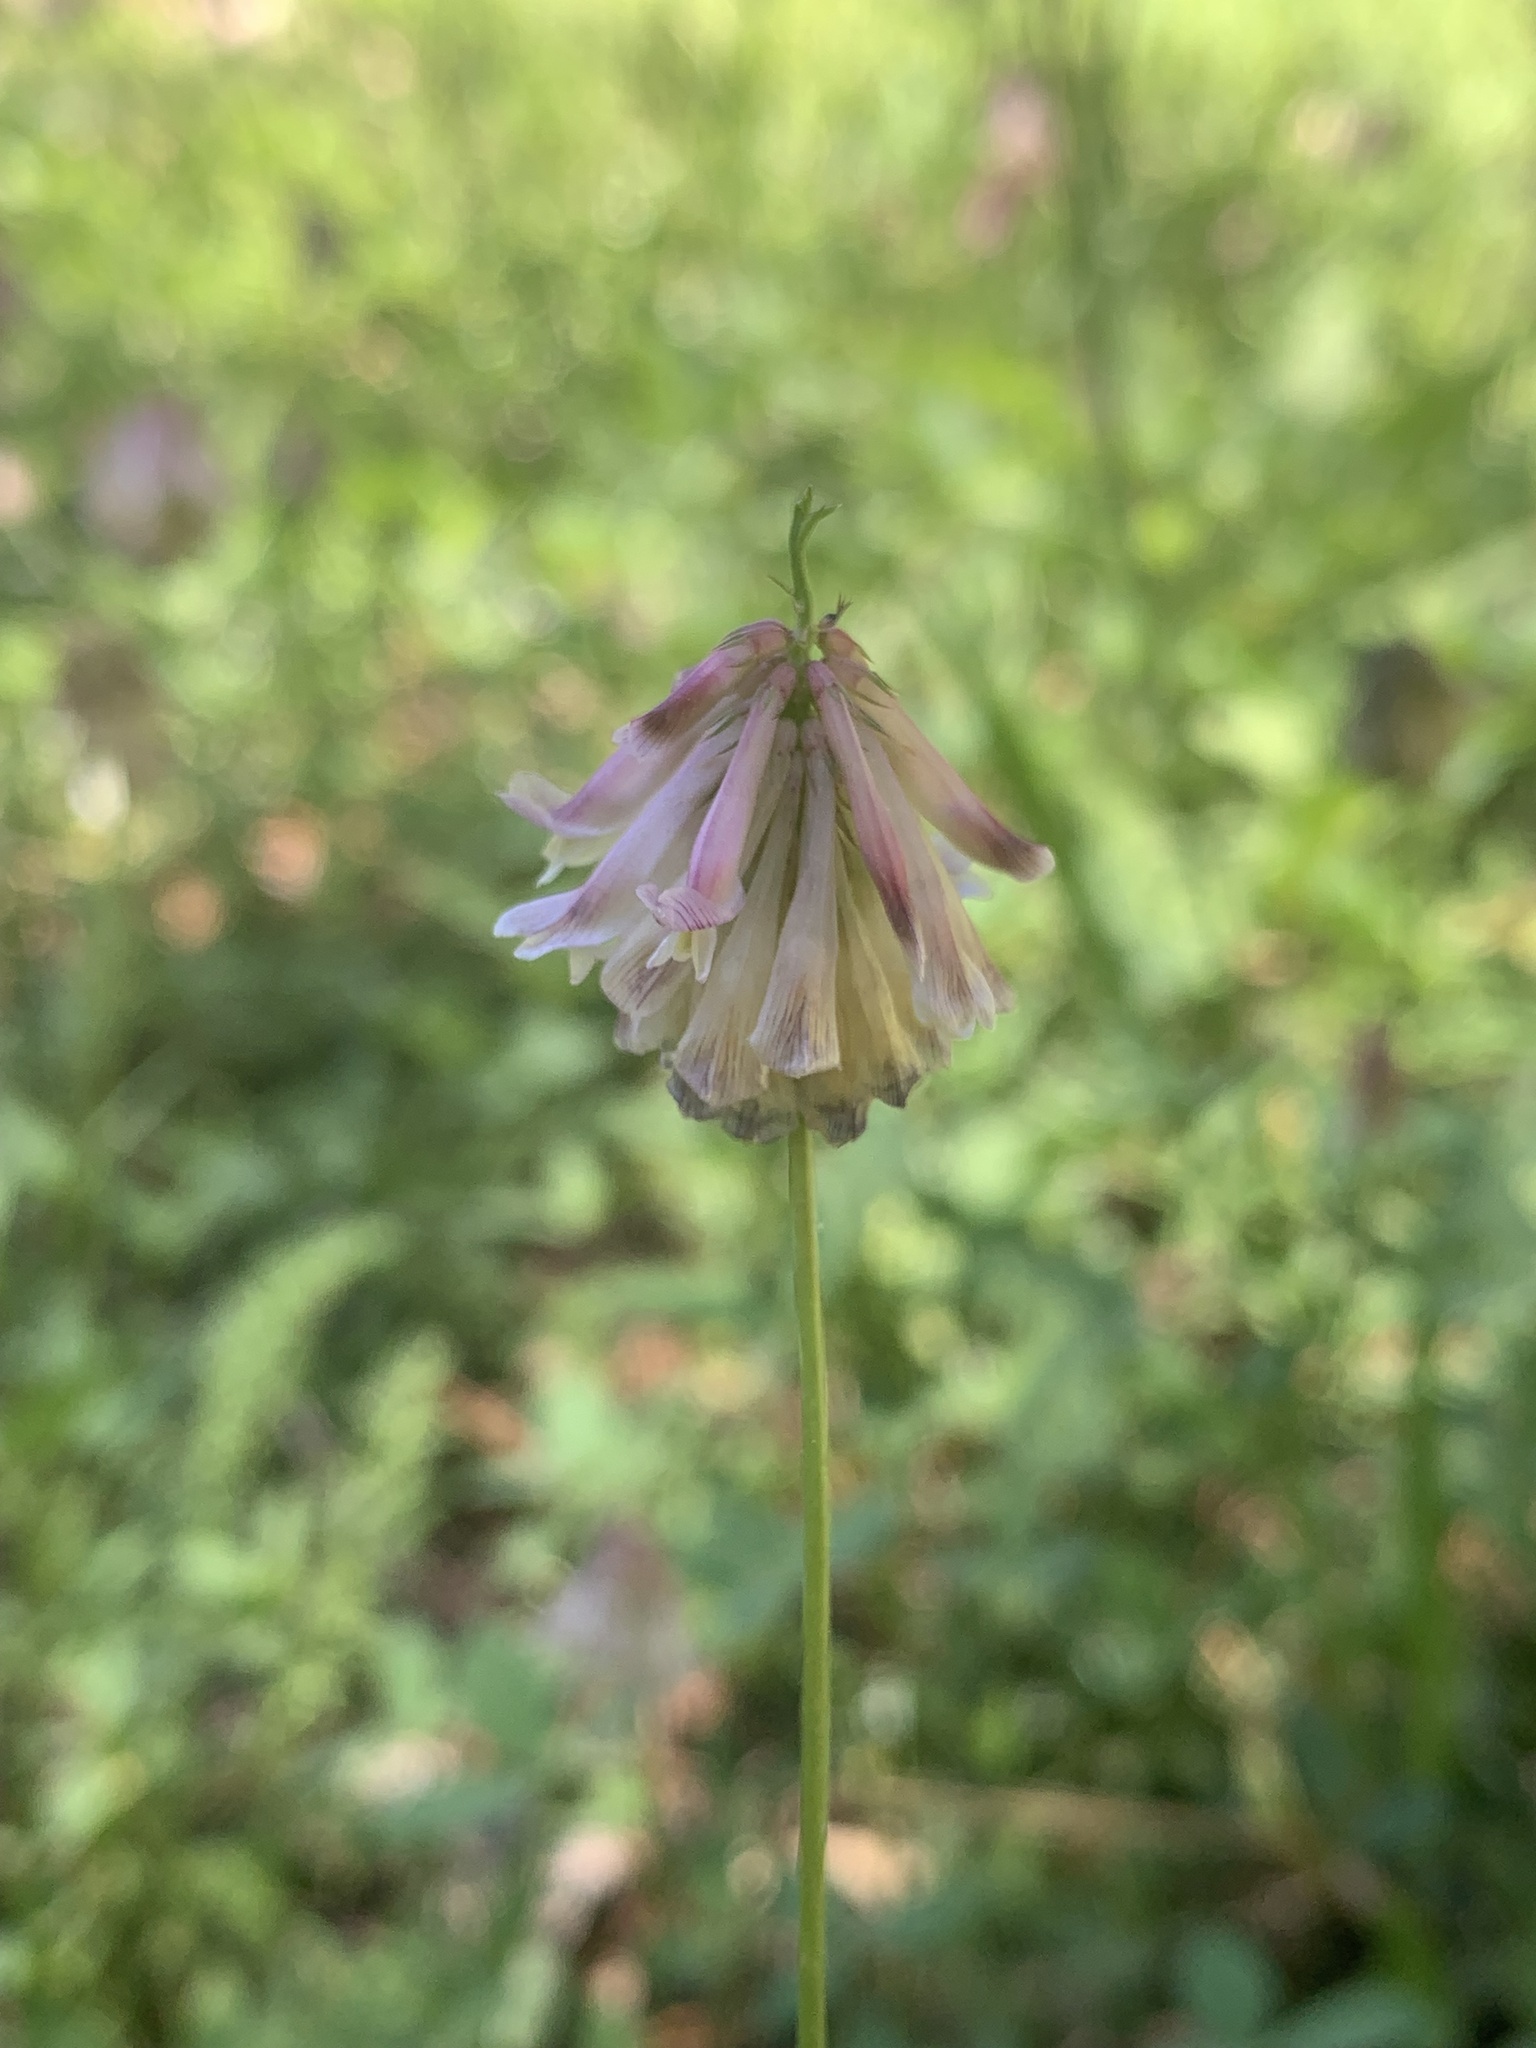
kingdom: Plantae
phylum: Tracheophyta
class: Magnoliopsida
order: Fabales
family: Fabaceae
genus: Trifolium
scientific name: Trifolium productum
